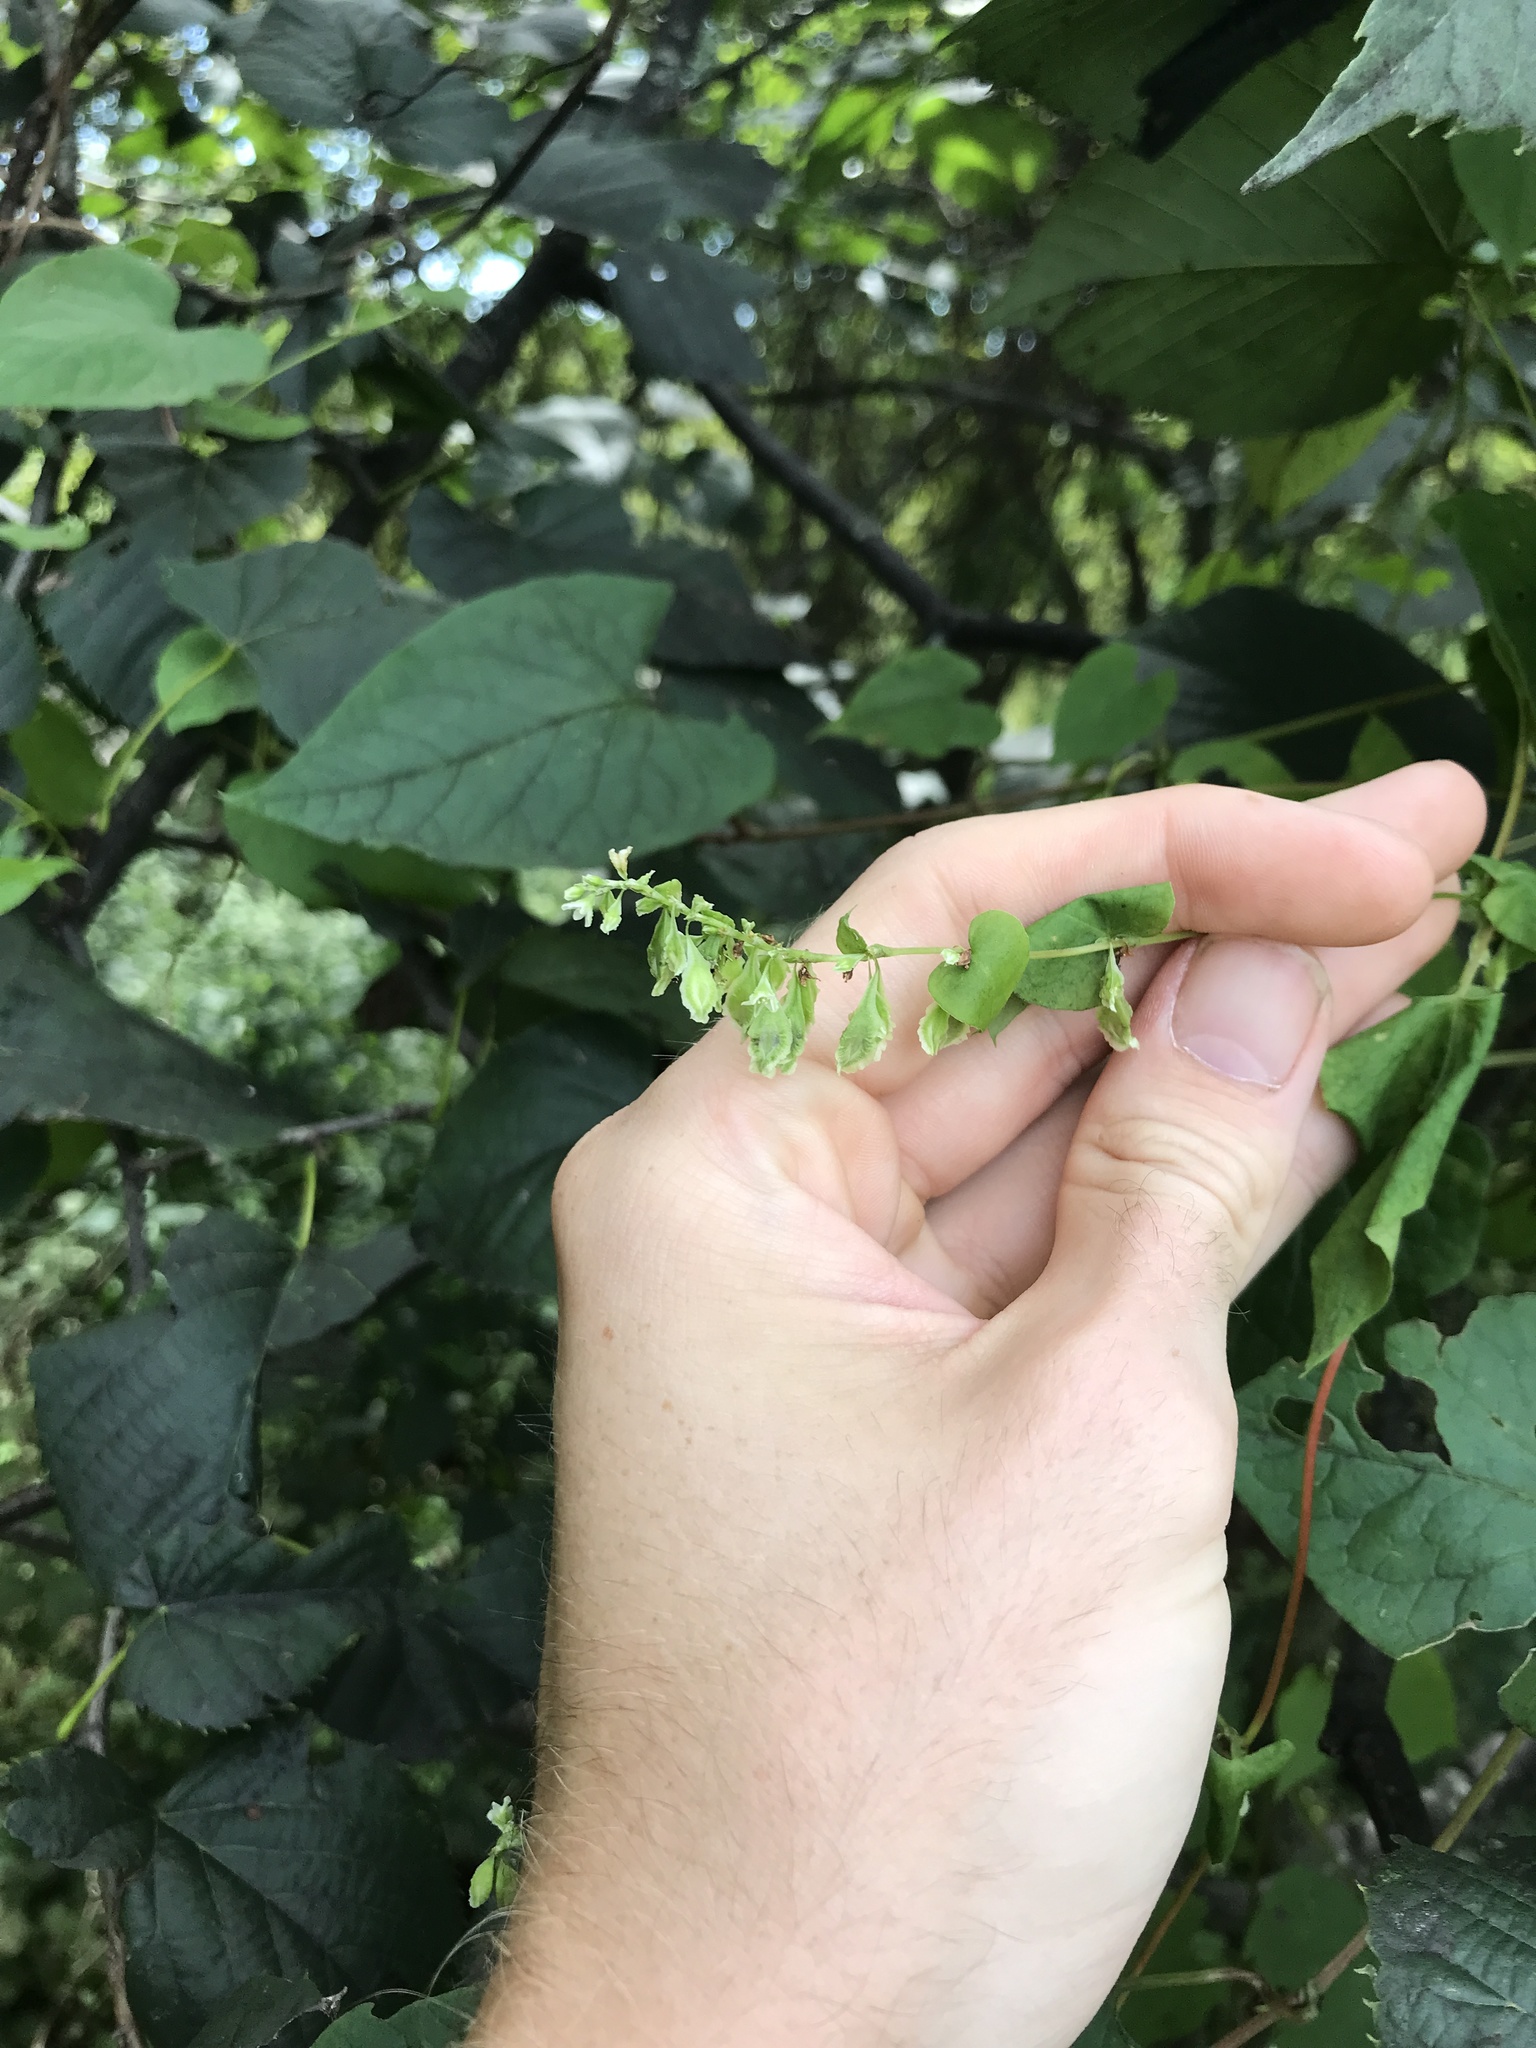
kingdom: Plantae
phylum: Tracheophyta
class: Magnoliopsida
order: Caryophyllales
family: Polygonaceae
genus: Fallopia
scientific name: Fallopia scandens
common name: Climbing false buckwheat
